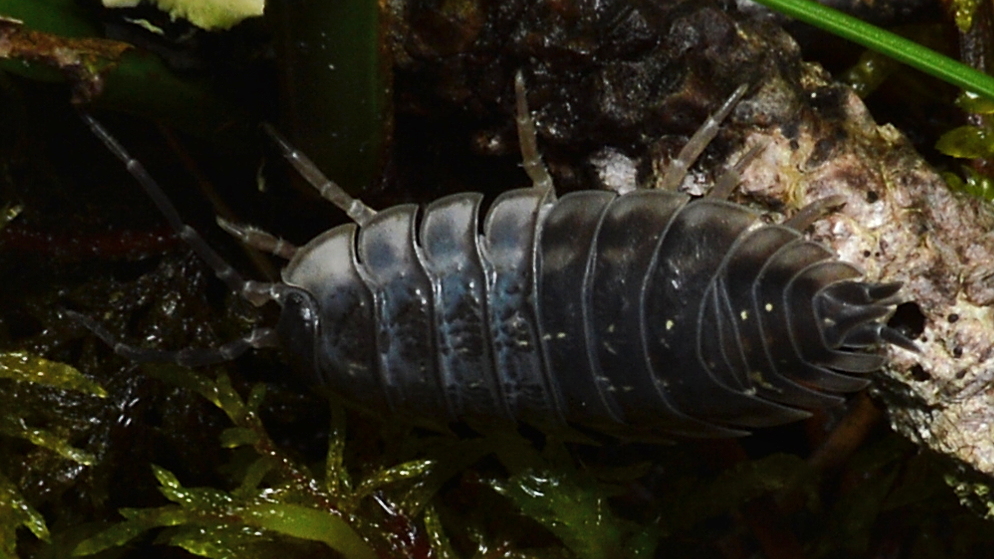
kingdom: Animalia
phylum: Arthropoda
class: Malacostraca
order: Isopoda
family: Oniscidae
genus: Oniscus
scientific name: Oniscus asellus
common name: Common shiny woodlouse
